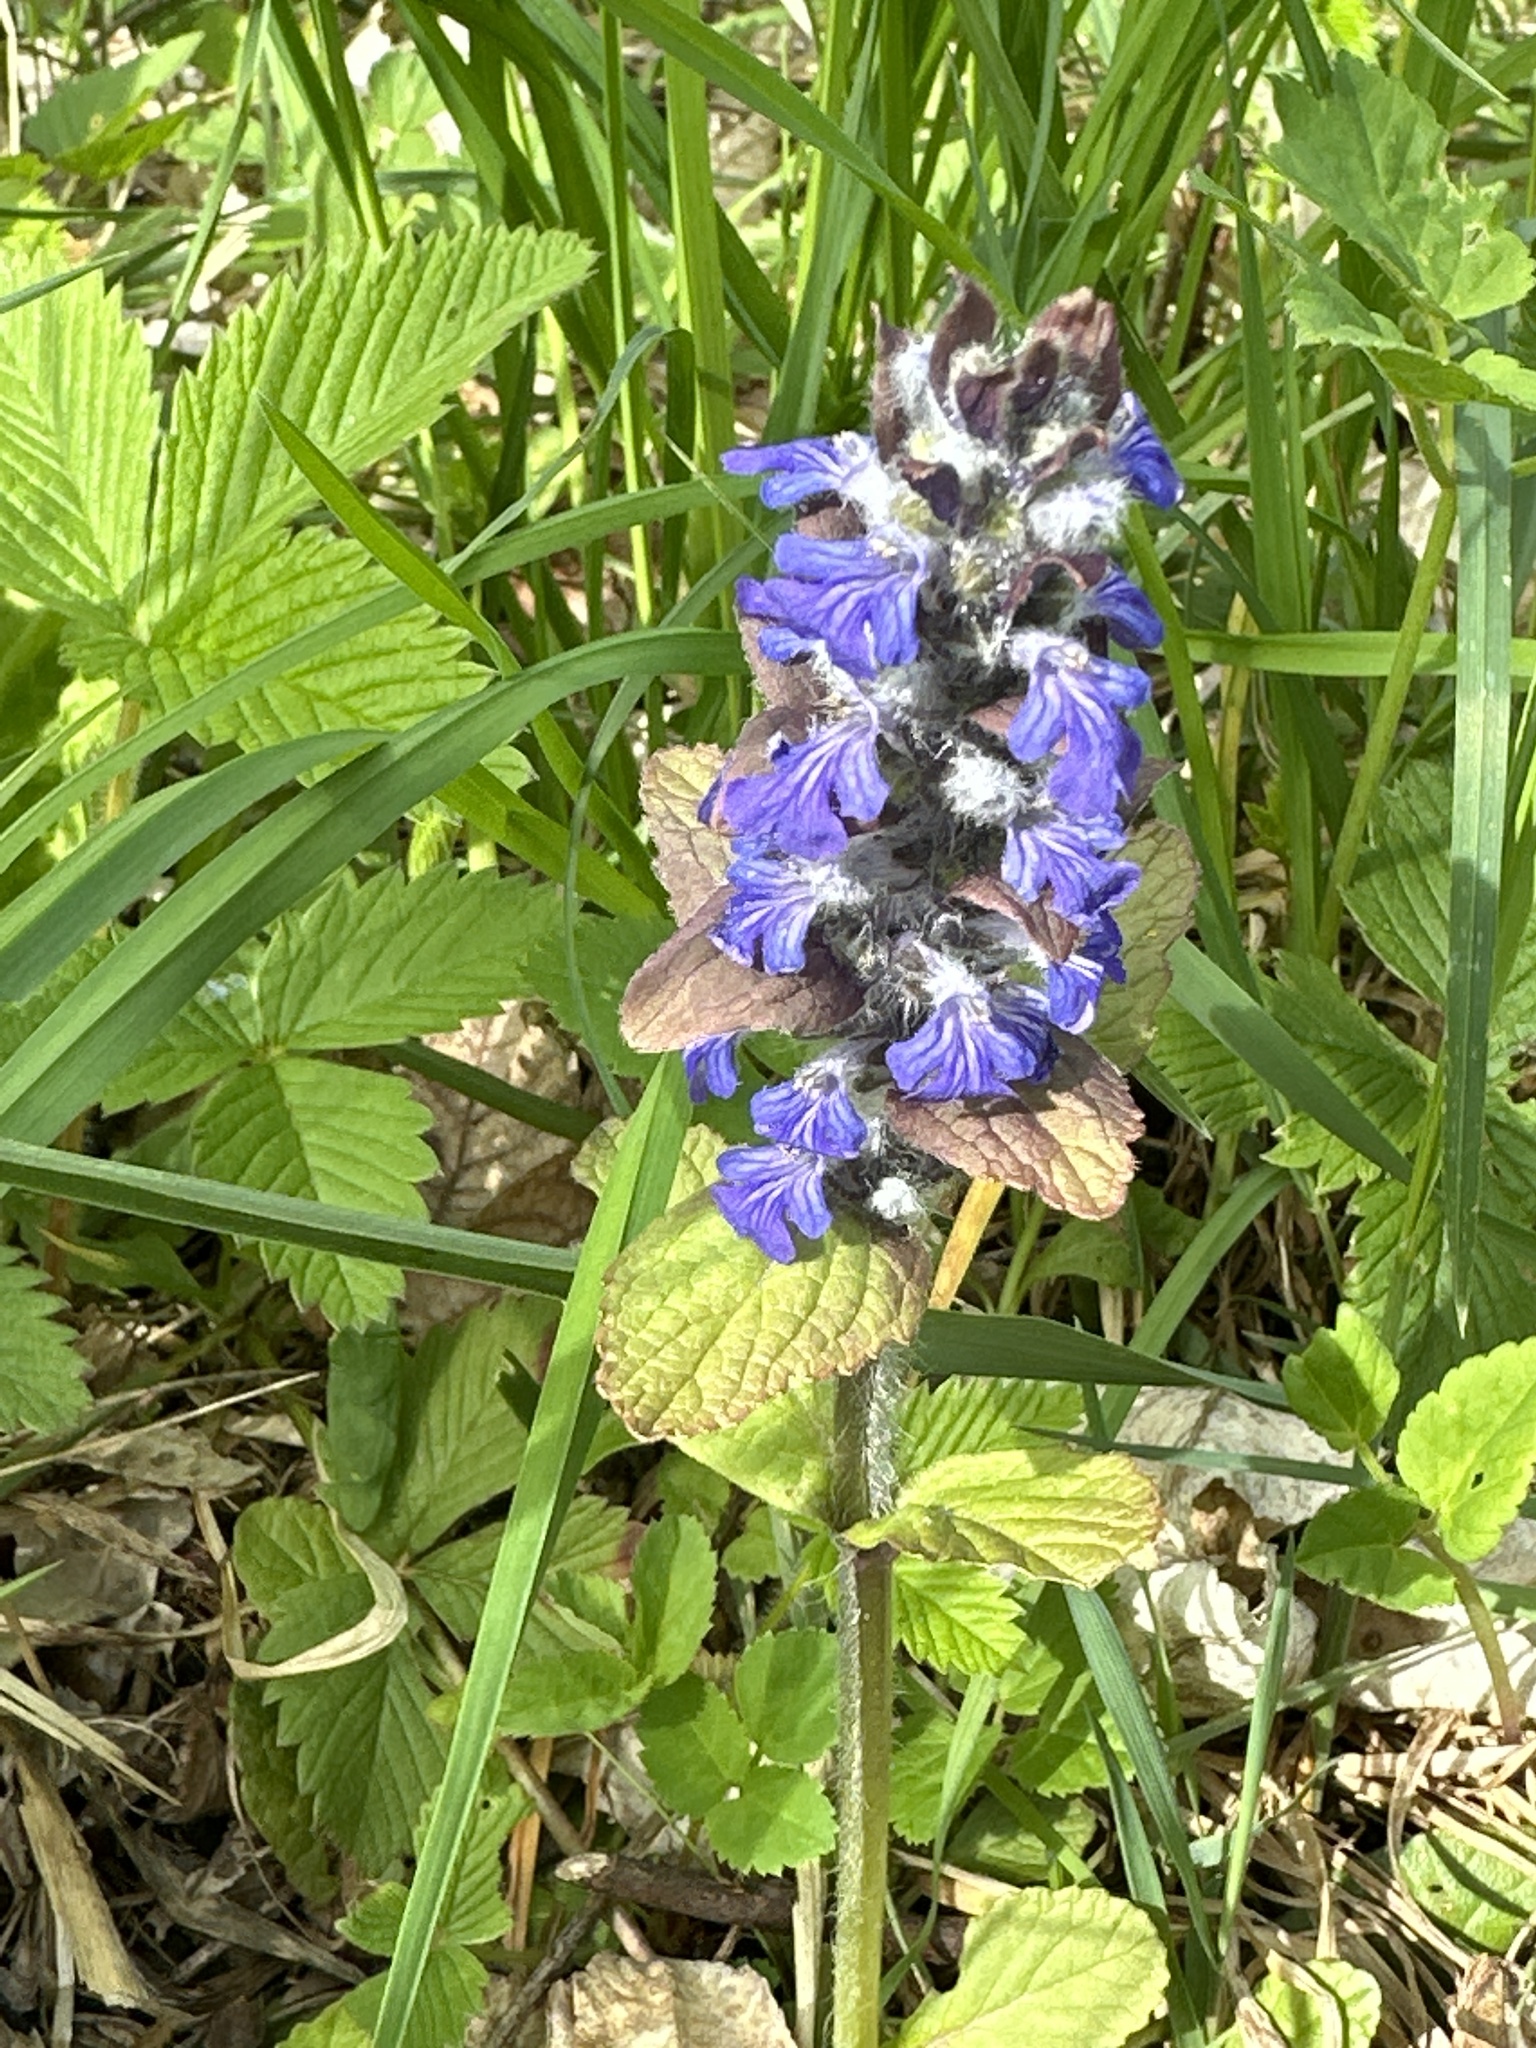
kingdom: Plantae
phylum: Tracheophyta
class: Magnoliopsida
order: Lamiales
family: Lamiaceae
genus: Ajuga
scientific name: Ajuga reptans
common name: Bugle
